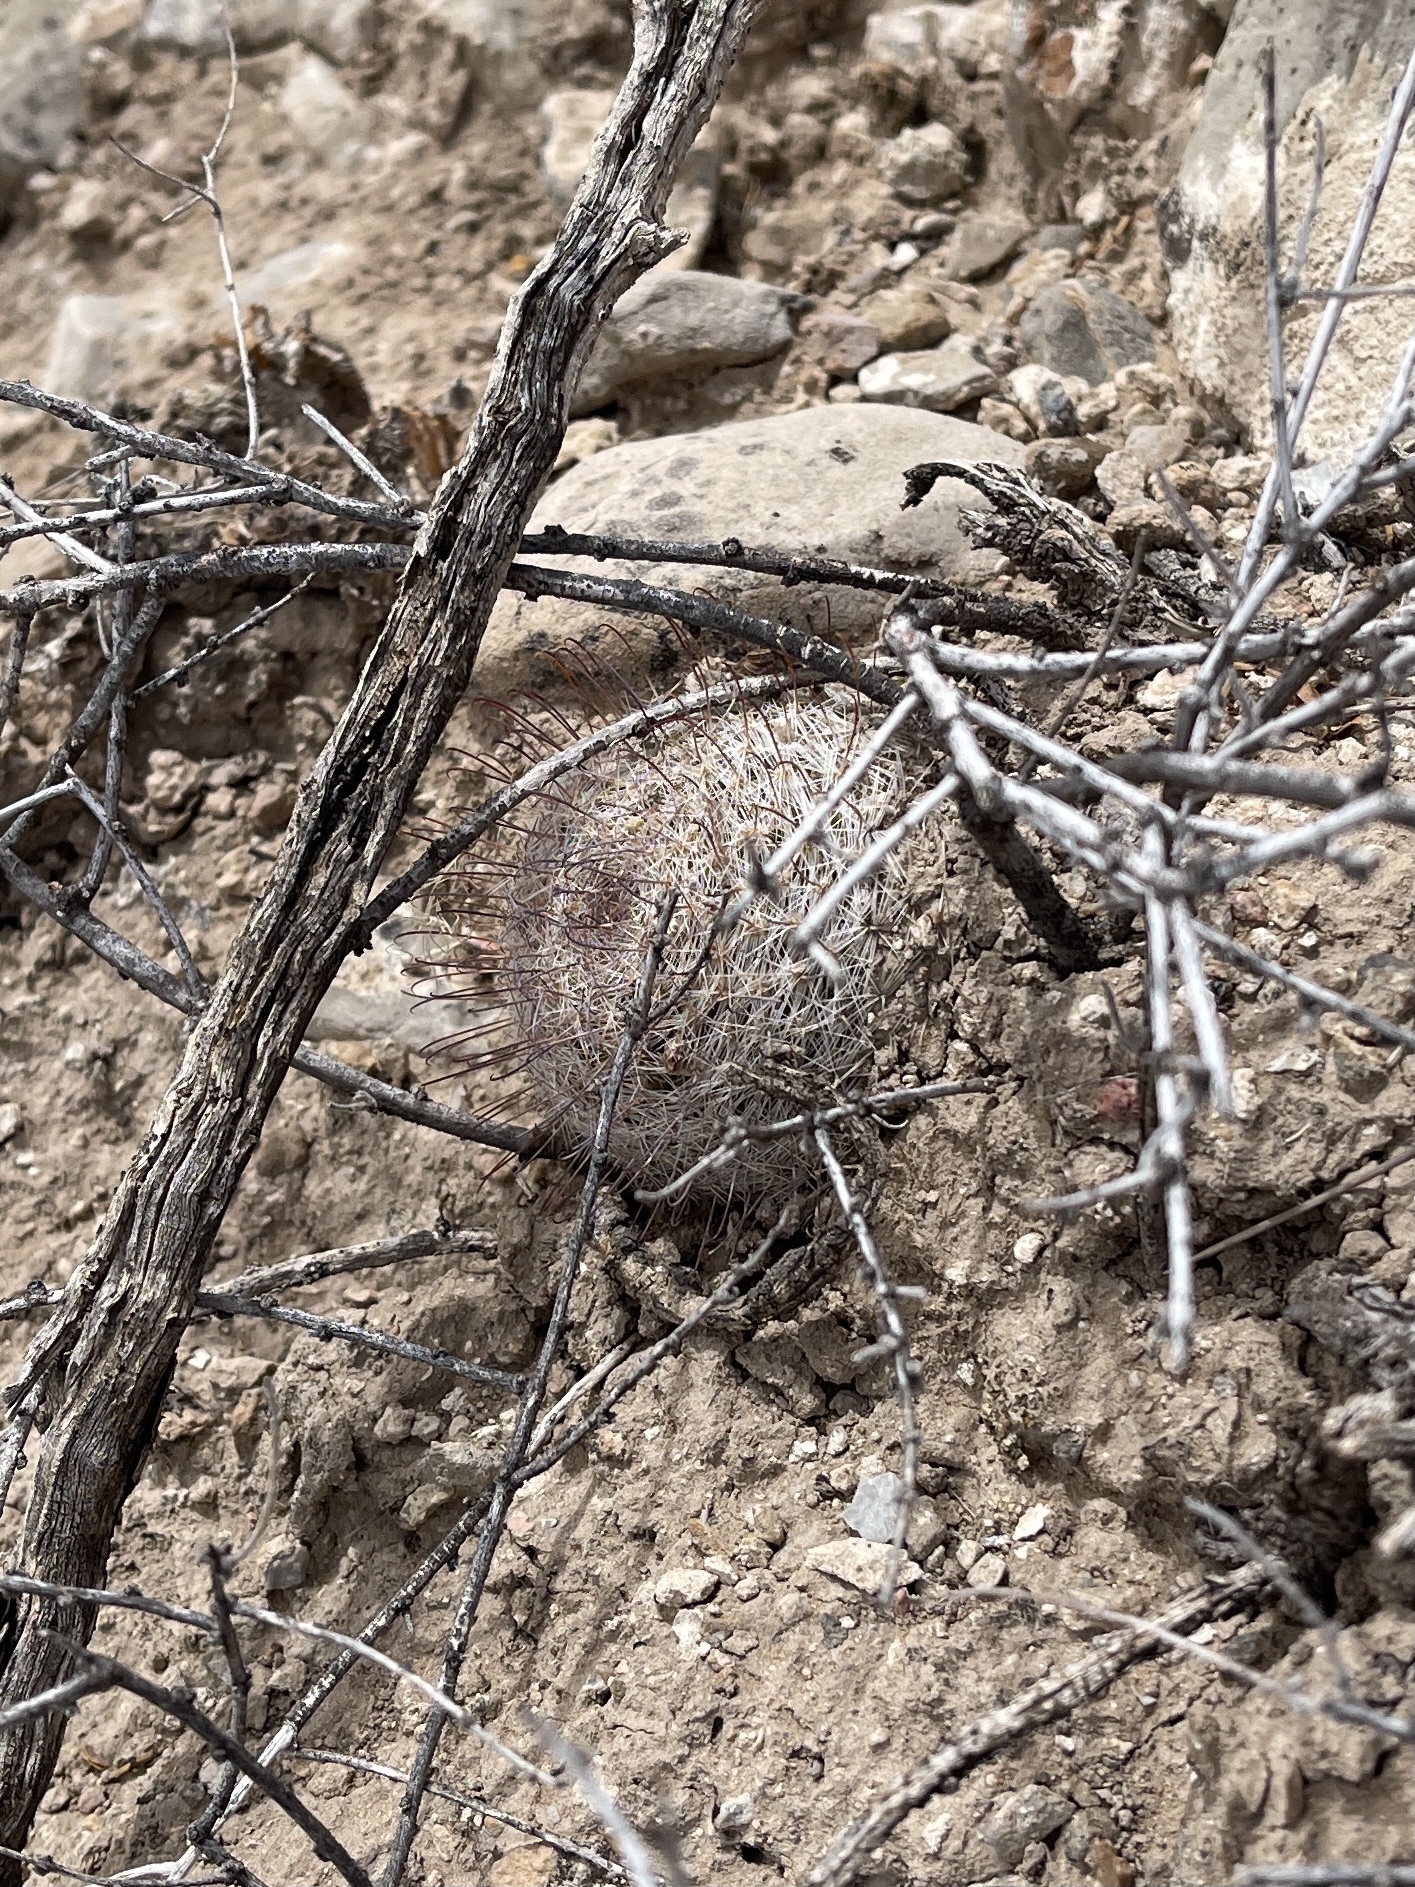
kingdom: Plantae
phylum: Tracheophyta
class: Magnoliopsida
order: Caryophyllales
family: Cactaceae
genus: Cochemiea
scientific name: Cochemiea grahamii
